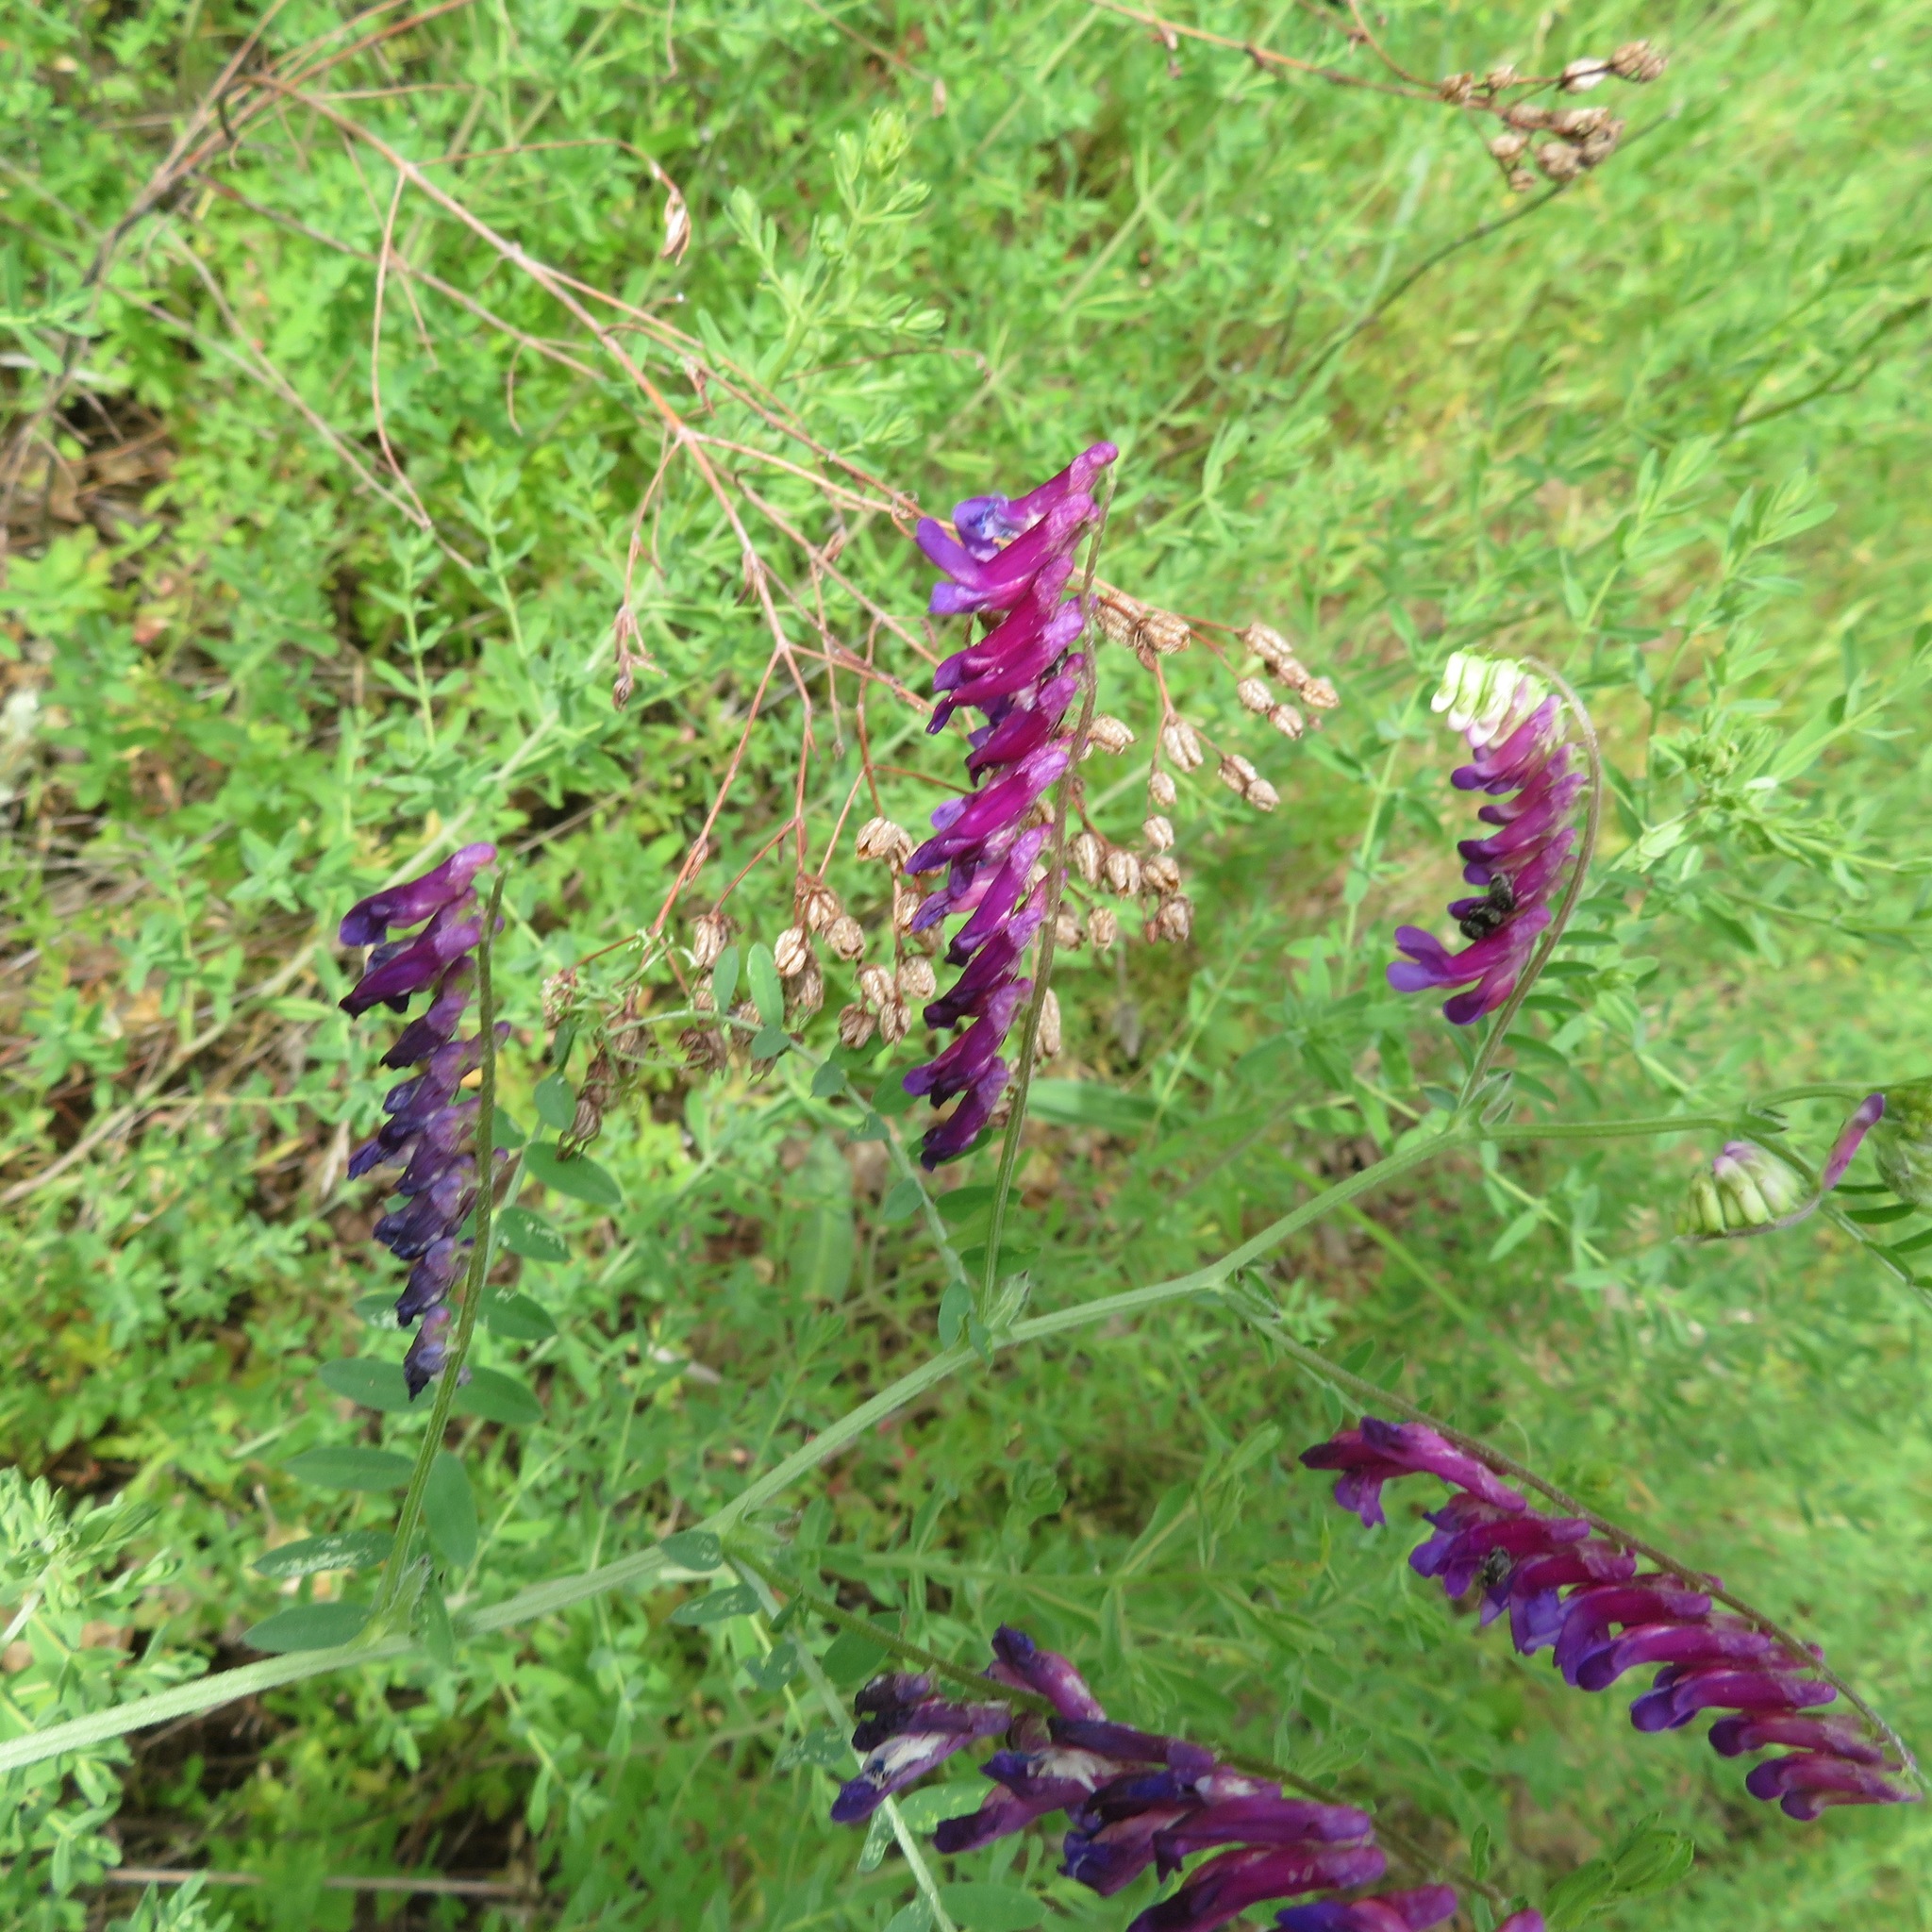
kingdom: Plantae
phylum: Tracheophyta
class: Magnoliopsida
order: Fabales
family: Fabaceae
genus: Vicia
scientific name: Vicia villosa
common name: Fodder vetch
